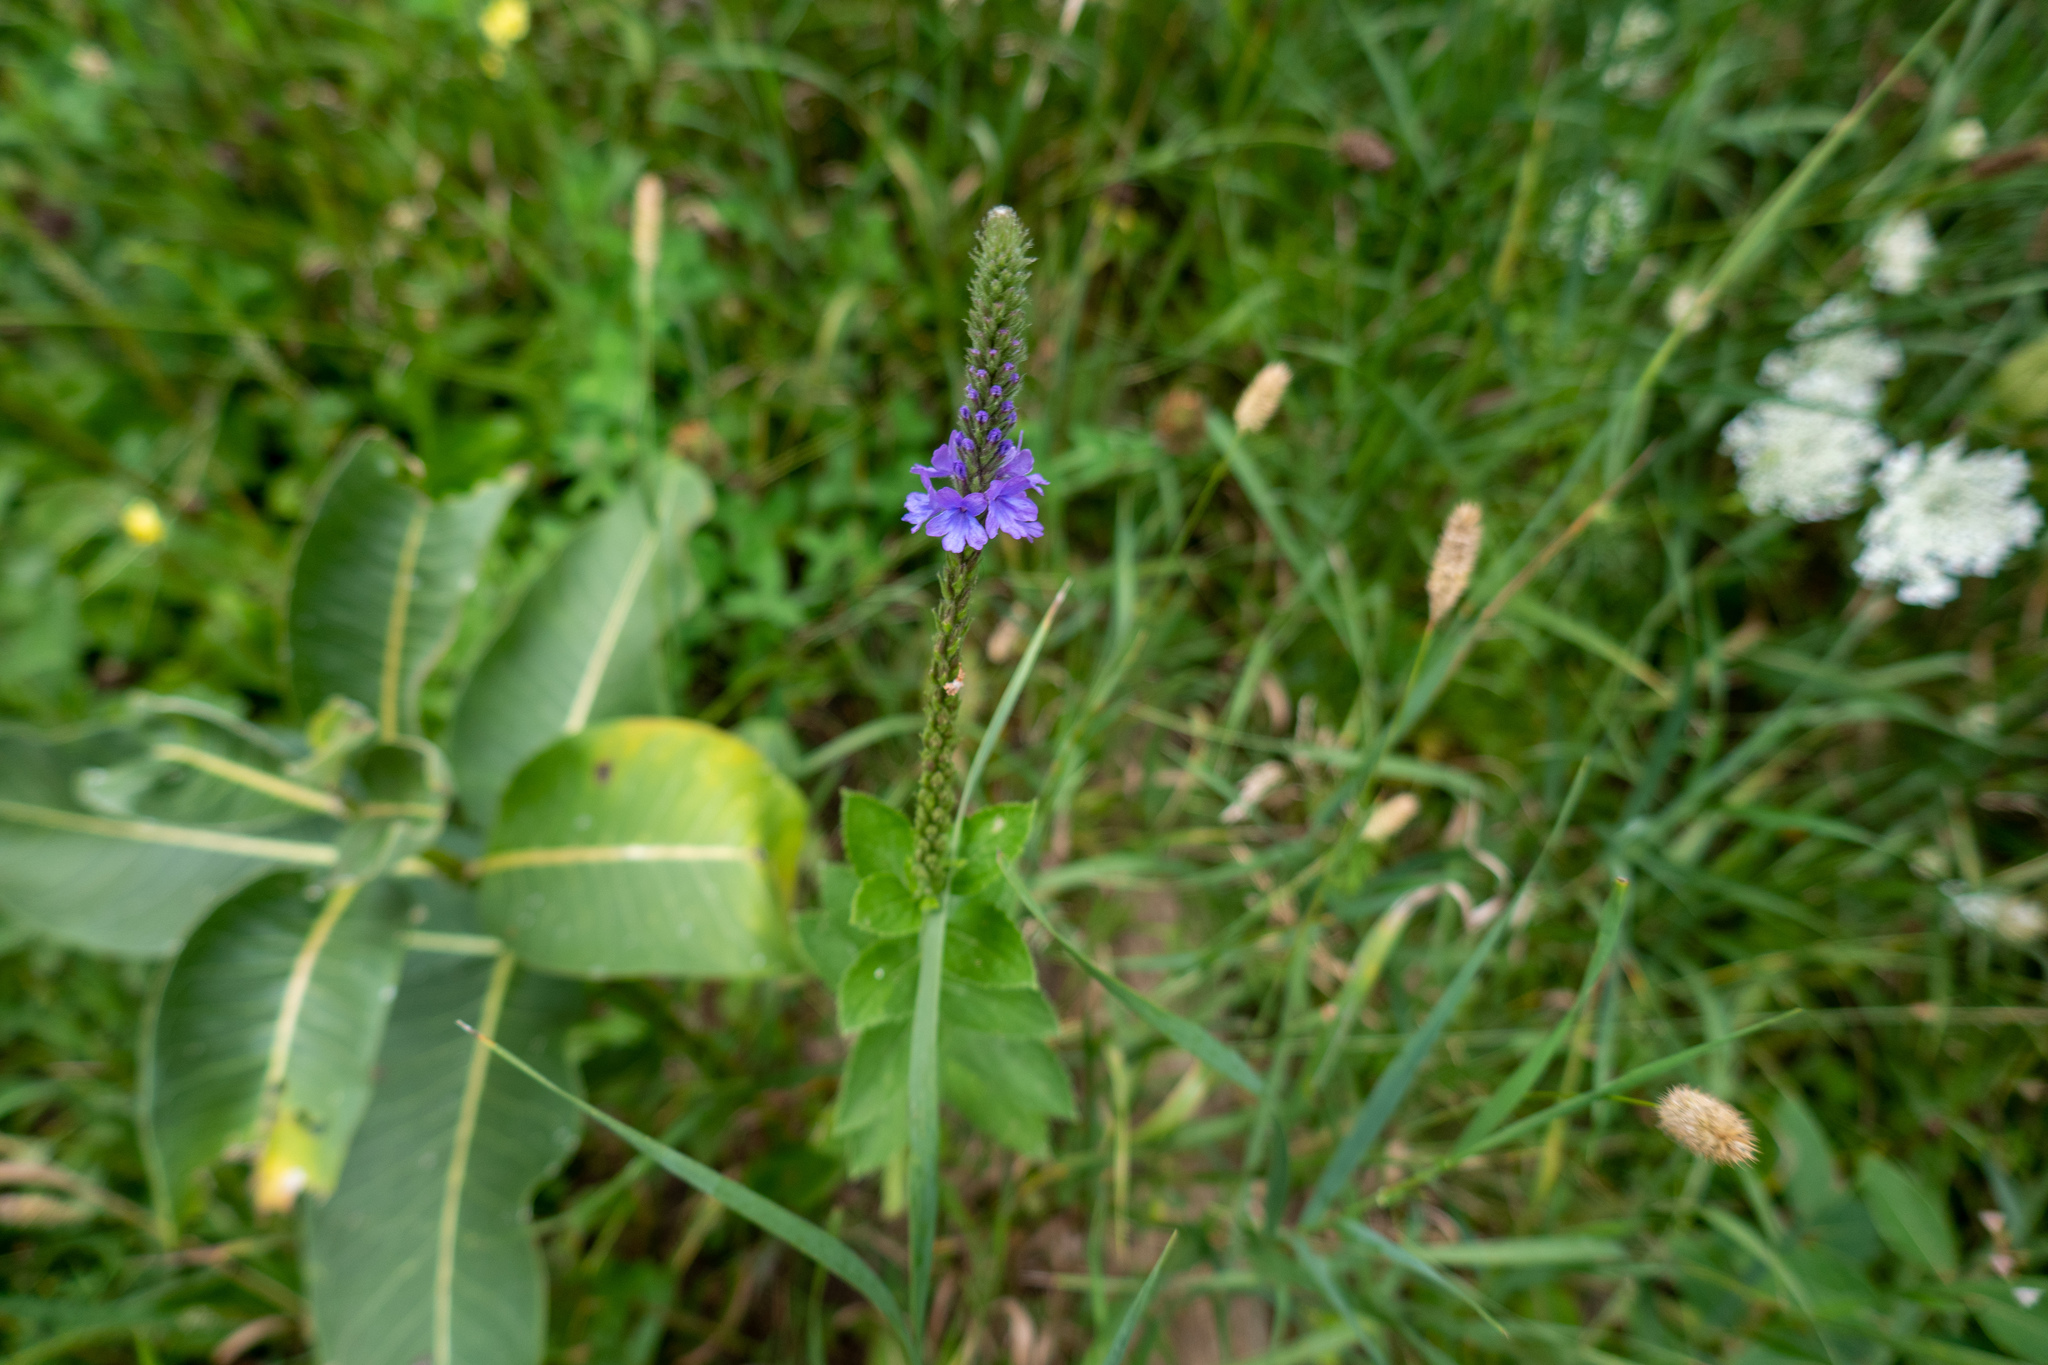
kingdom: Plantae
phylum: Tracheophyta
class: Magnoliopsida
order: Lamiales
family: Verbenaceae
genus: Verbena
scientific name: Verbena stricta
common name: Hoary vervain
